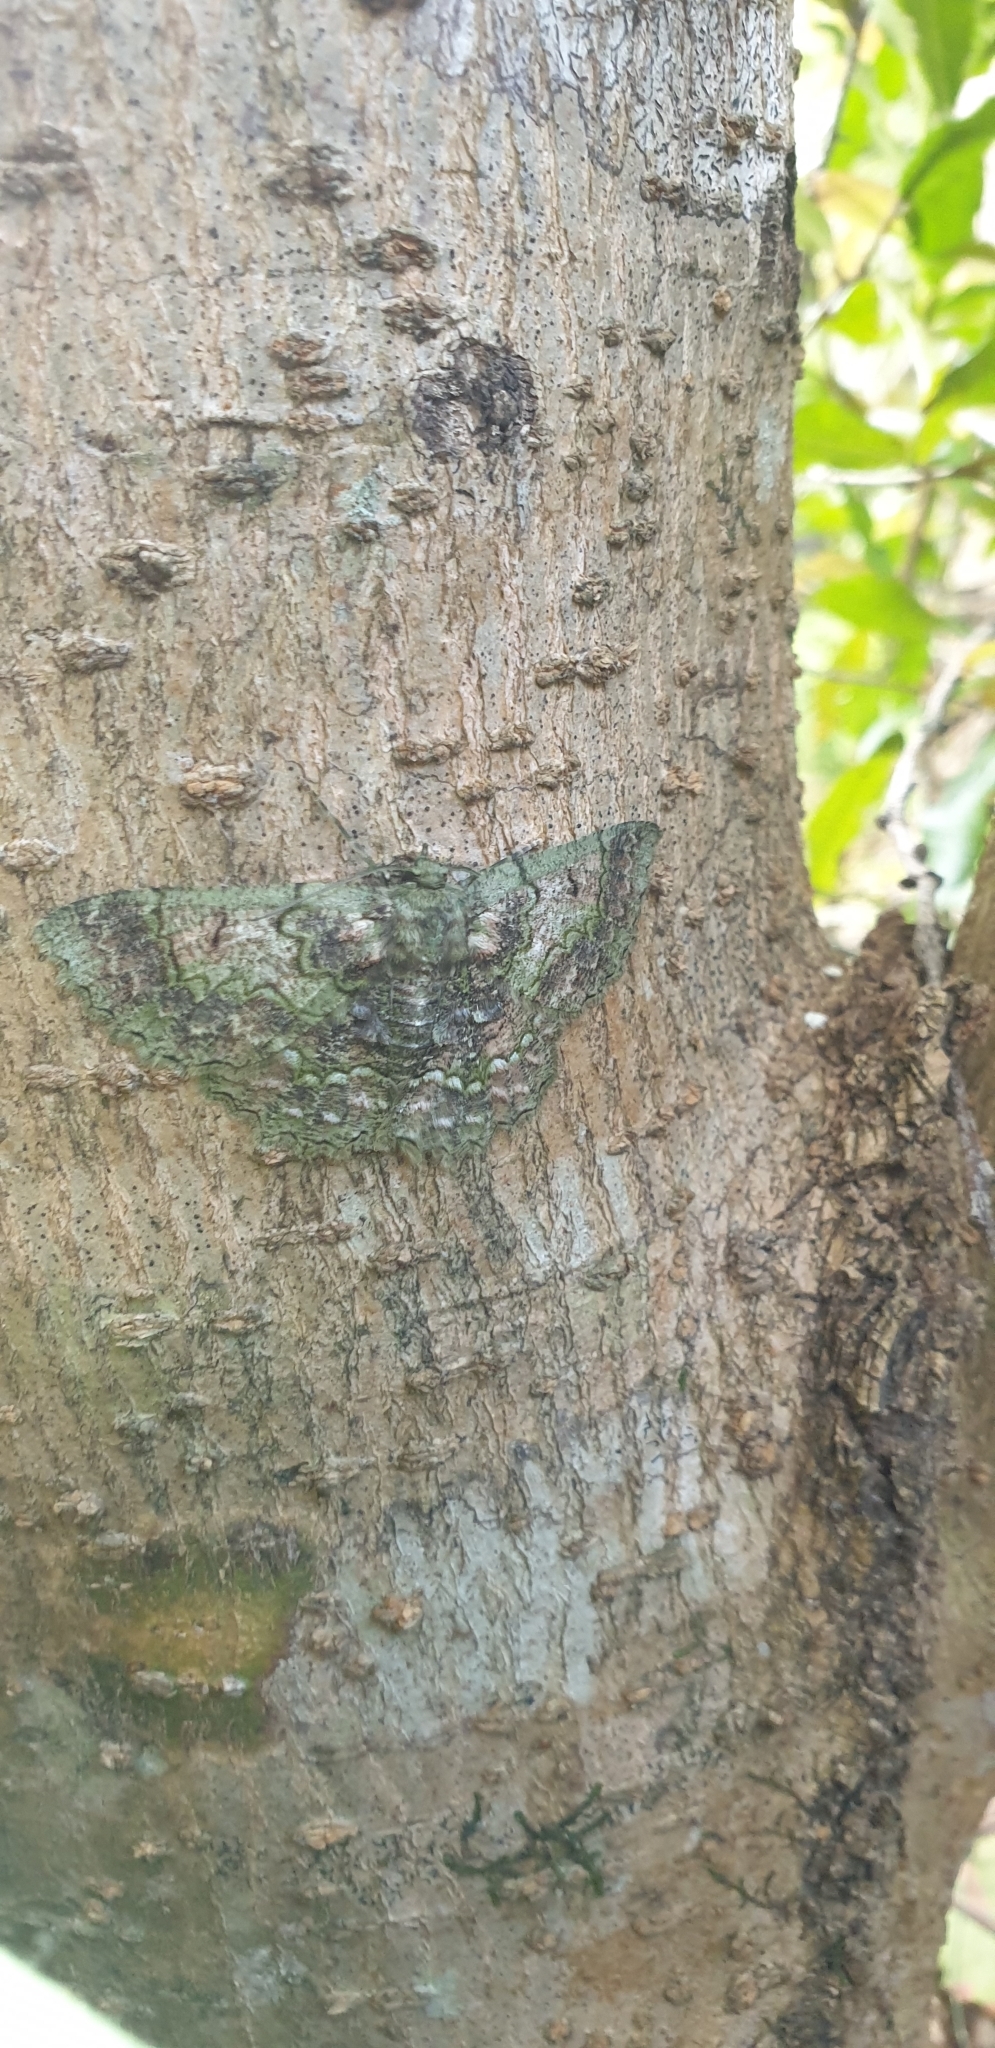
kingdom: Animalia
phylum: Arthropoda
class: Insecta
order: Lepidoptera
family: Geometridae
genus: Hypodoxa
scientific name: Hypodoxa bryophylla
